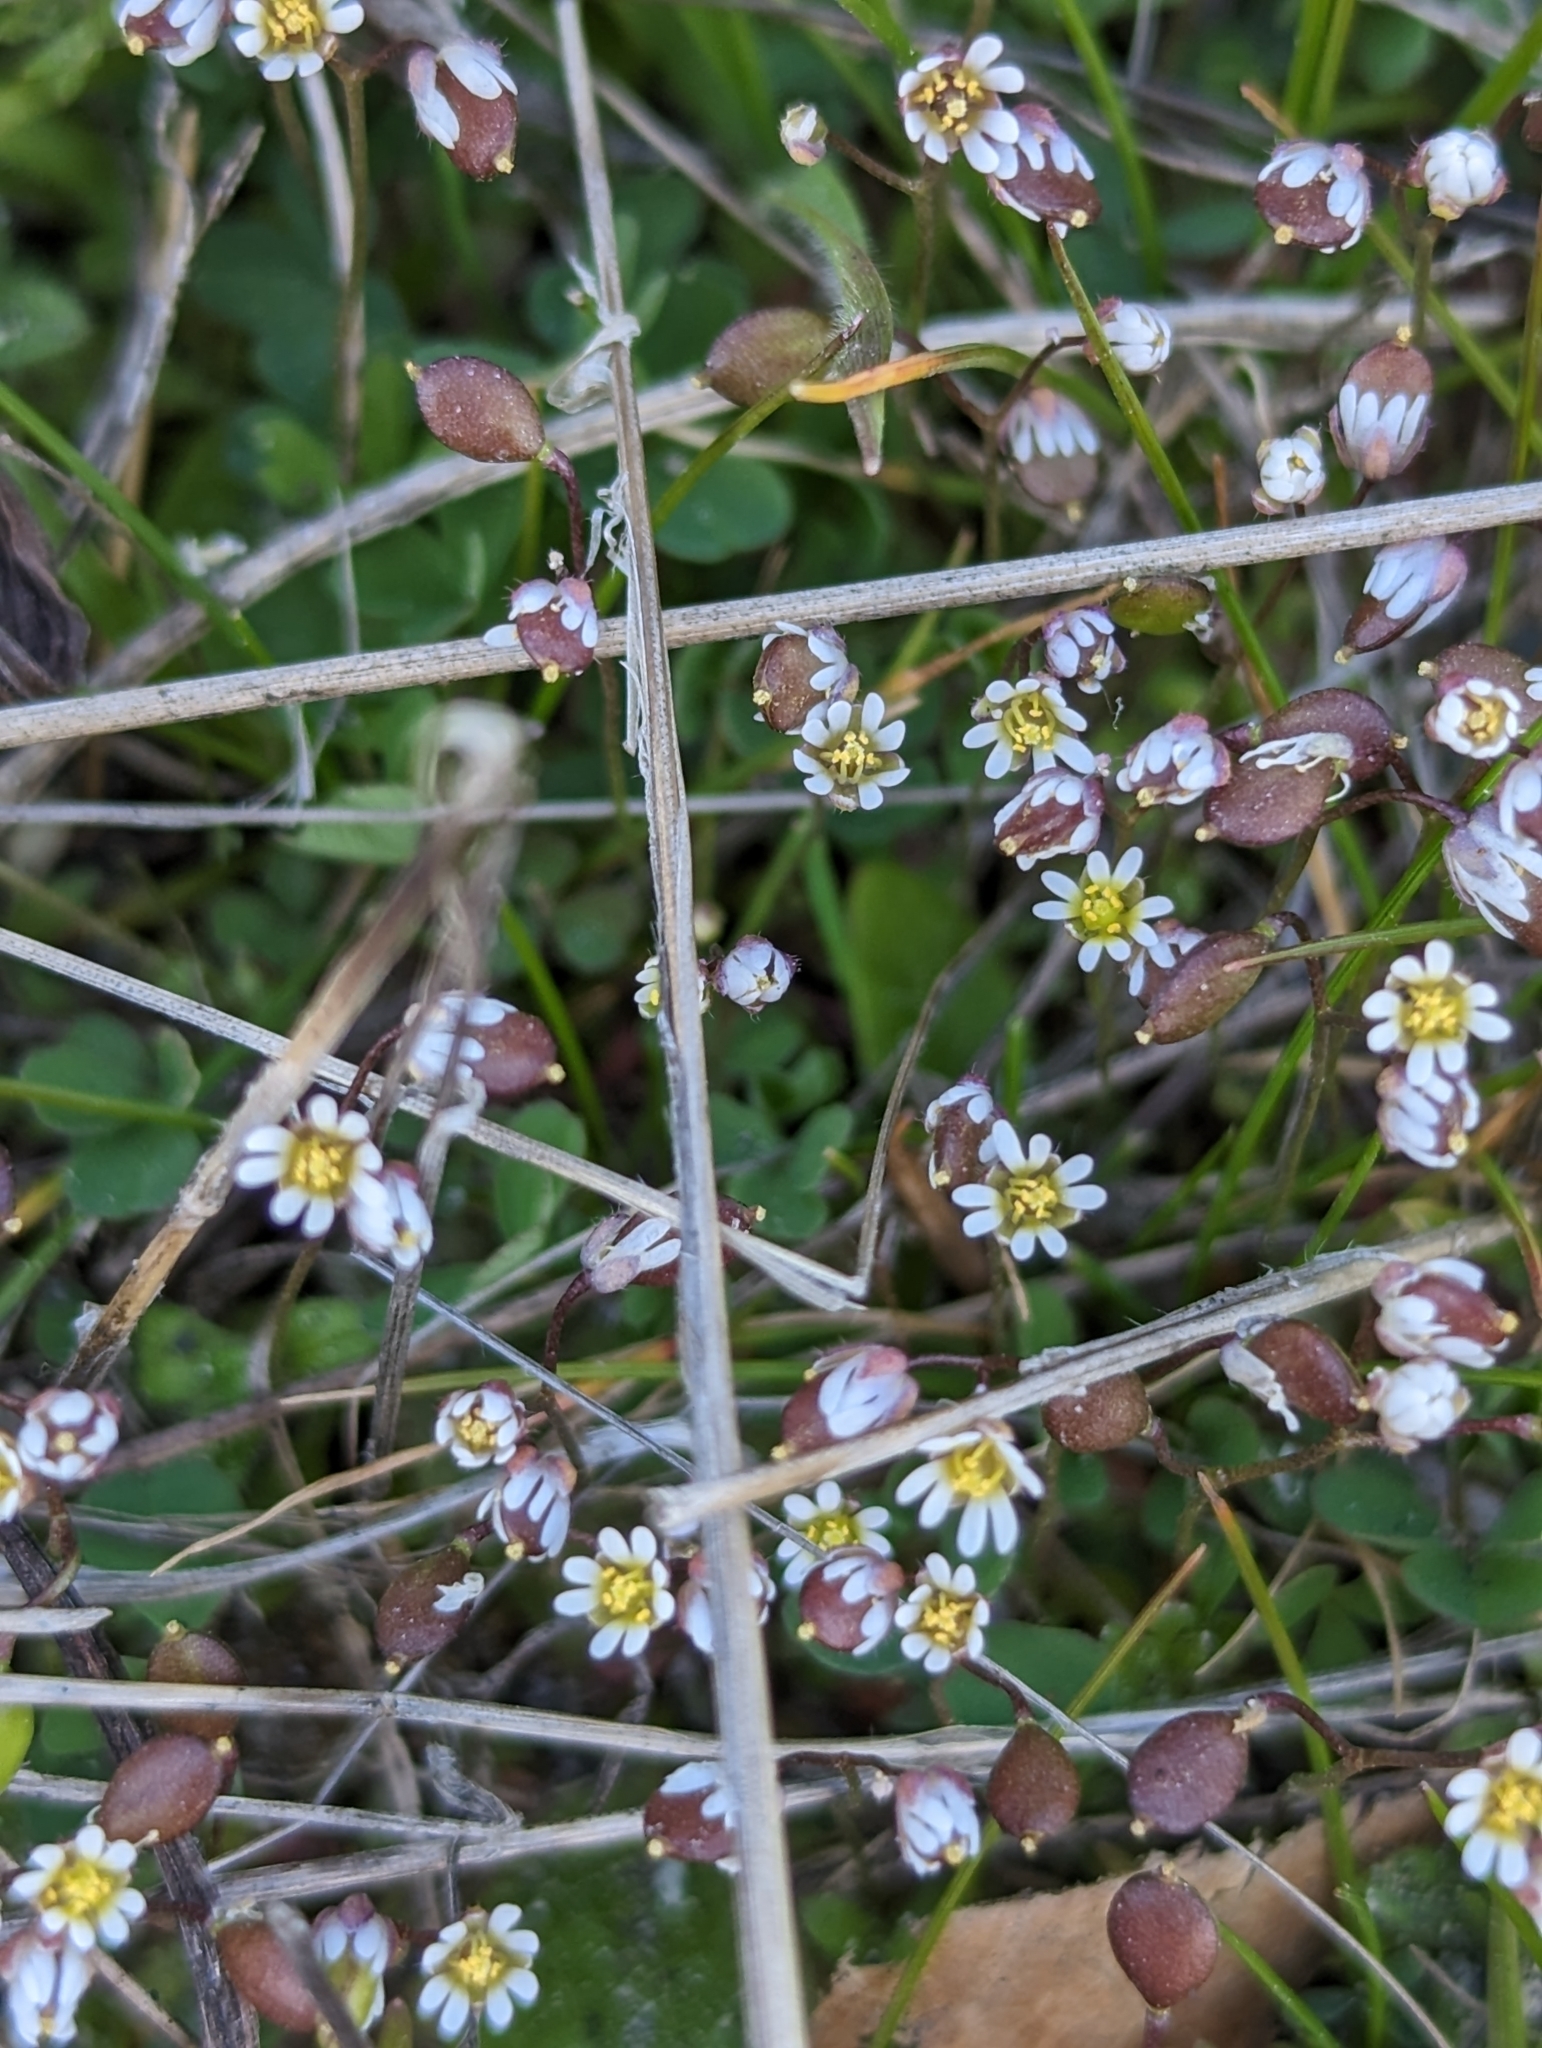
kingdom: Plantae
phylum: Tracheophyta
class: Magnoliopsida
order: Brassicales
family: Brassicaceae
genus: Draba
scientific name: Draba verna
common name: Spring draba
